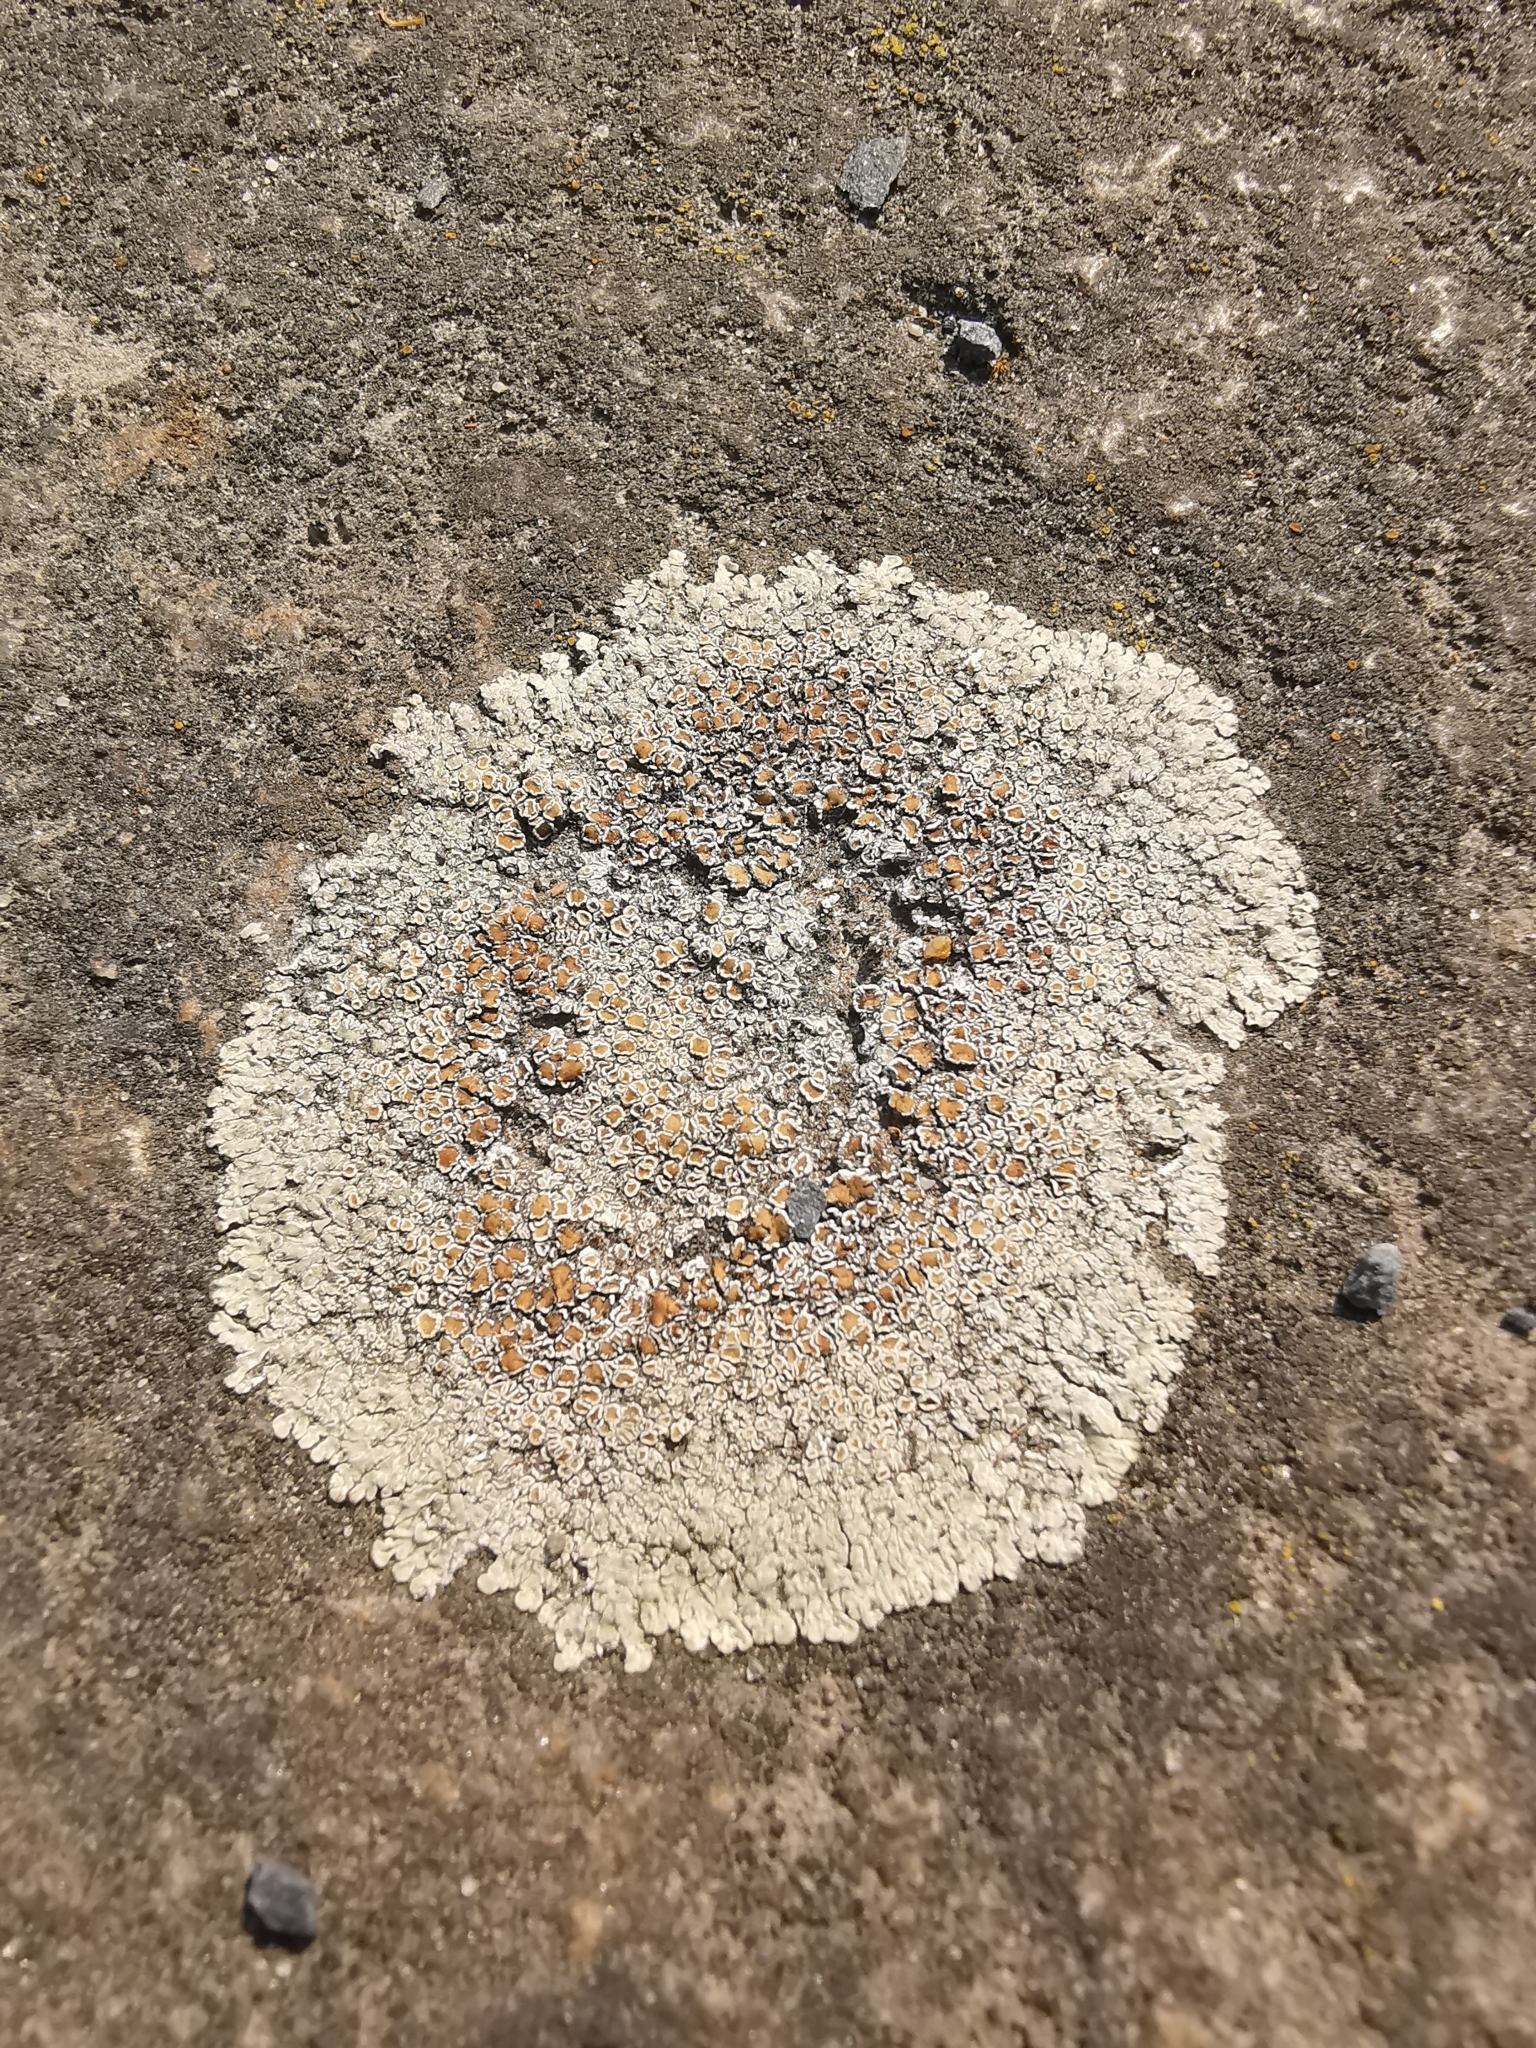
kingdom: Fungi
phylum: Ascomycota
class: Lecanoromycetes
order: Lecanorales
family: Lecanoraceae
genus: Protoparmeliopsis
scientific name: Protoparmeliopsis muralis
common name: Stonewall rim lichen
